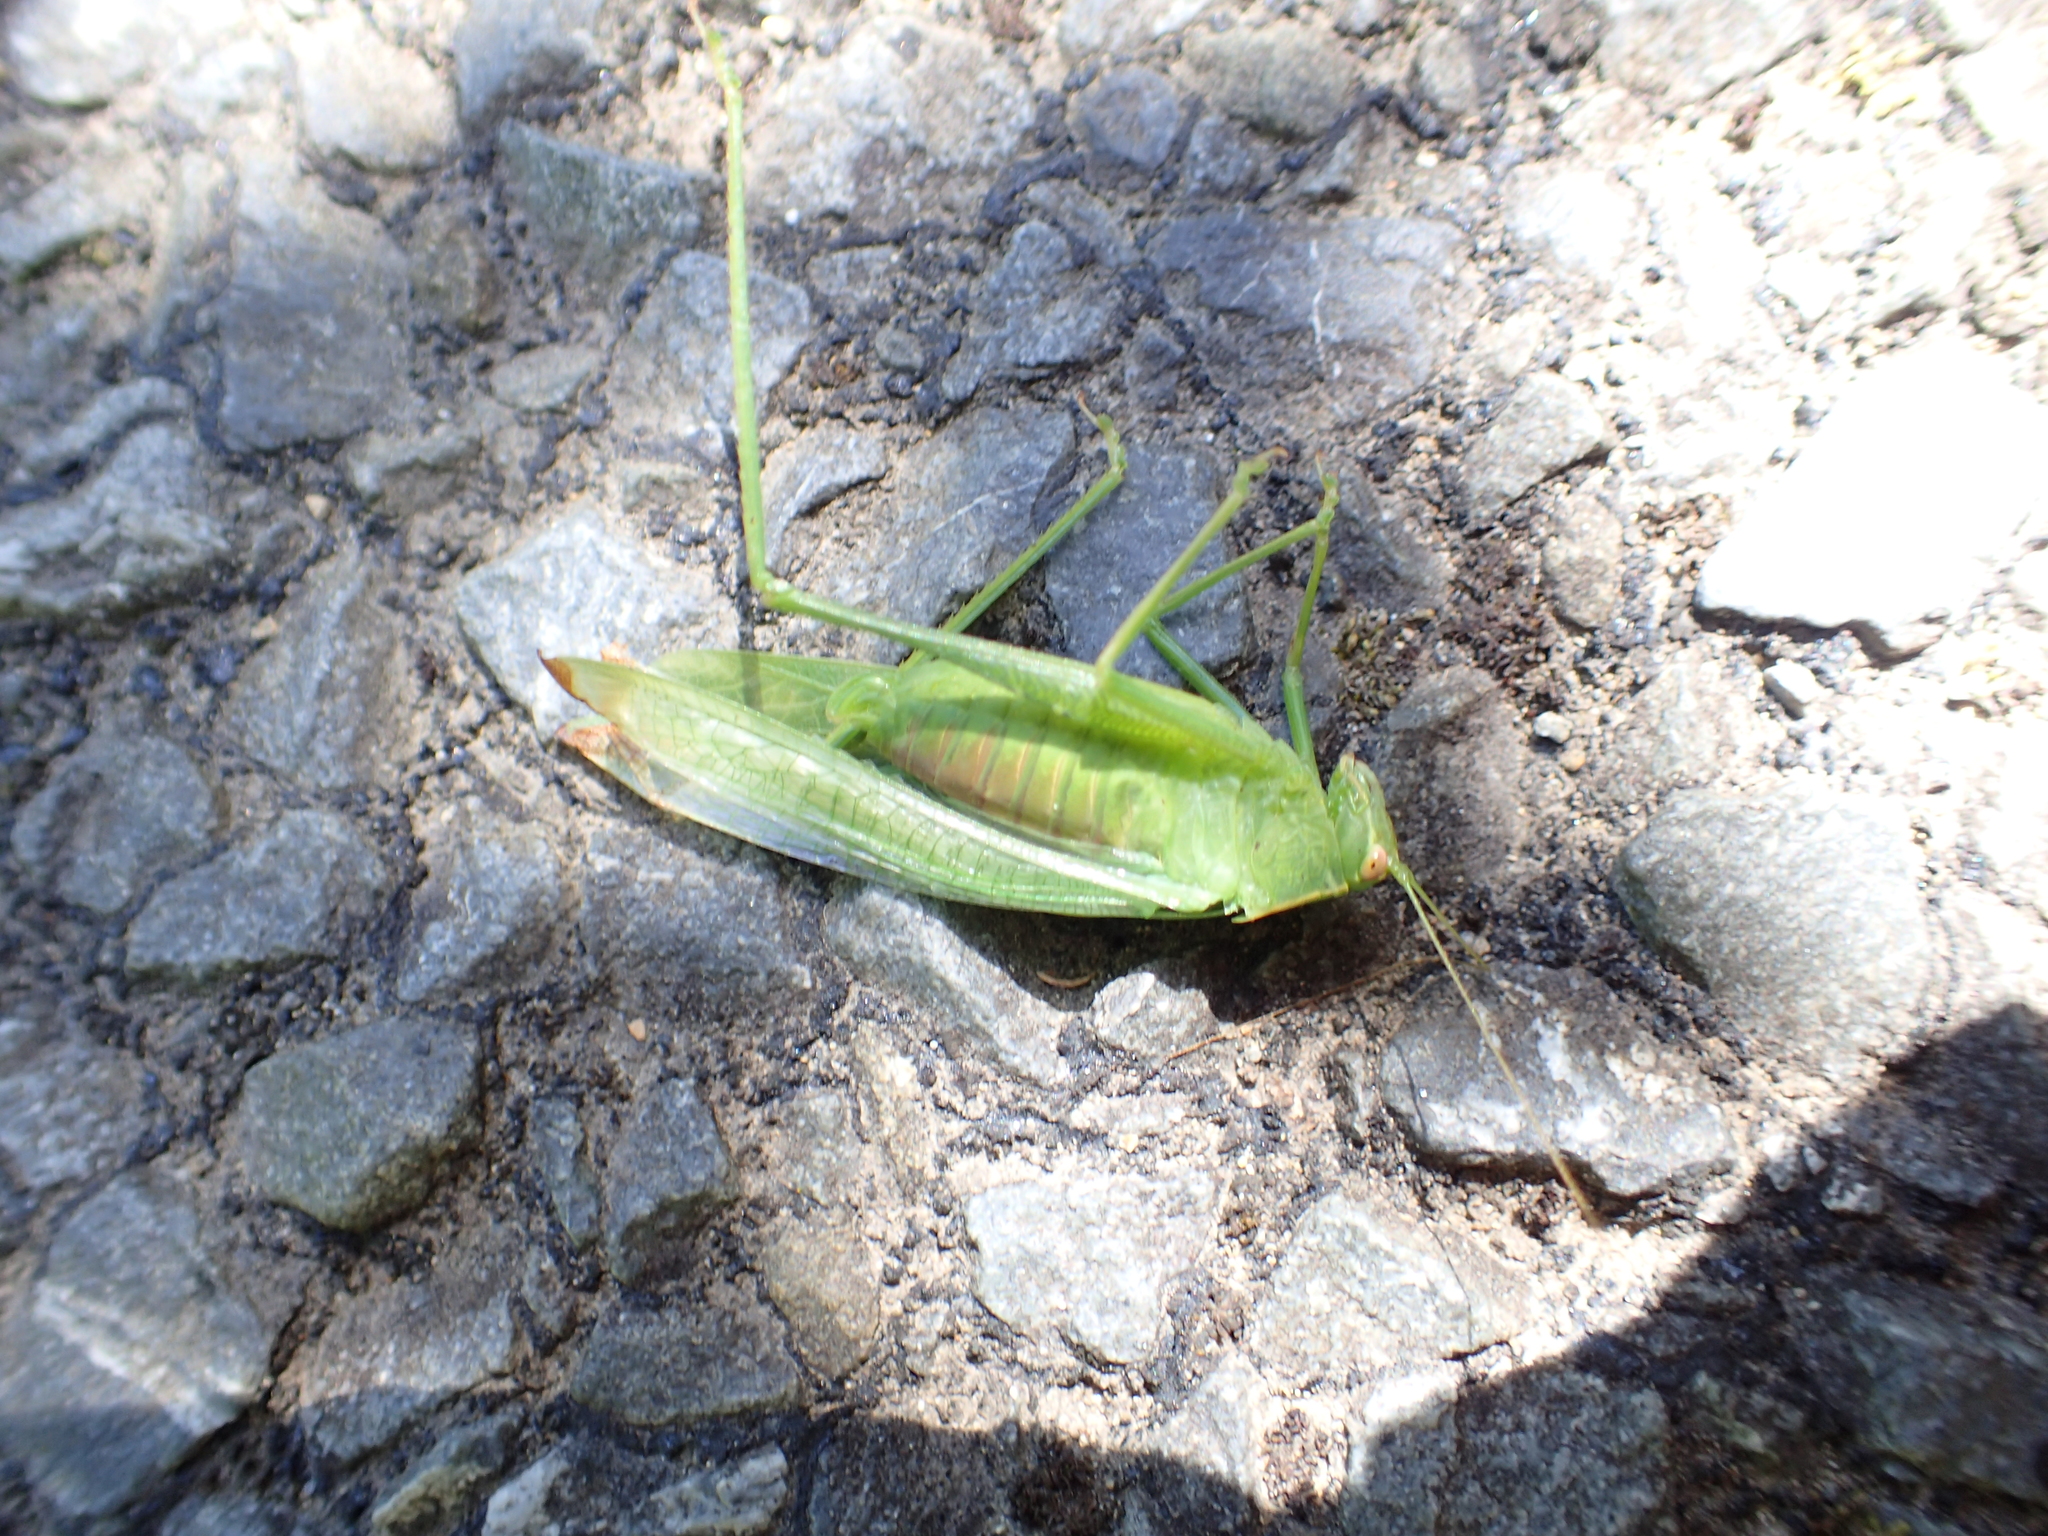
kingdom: Animalia
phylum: Arthropoda
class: Insecta
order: Orthoptera
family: Tettigoniidae
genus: Caedicia
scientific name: Caedicia simplex
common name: Common garden katydid
